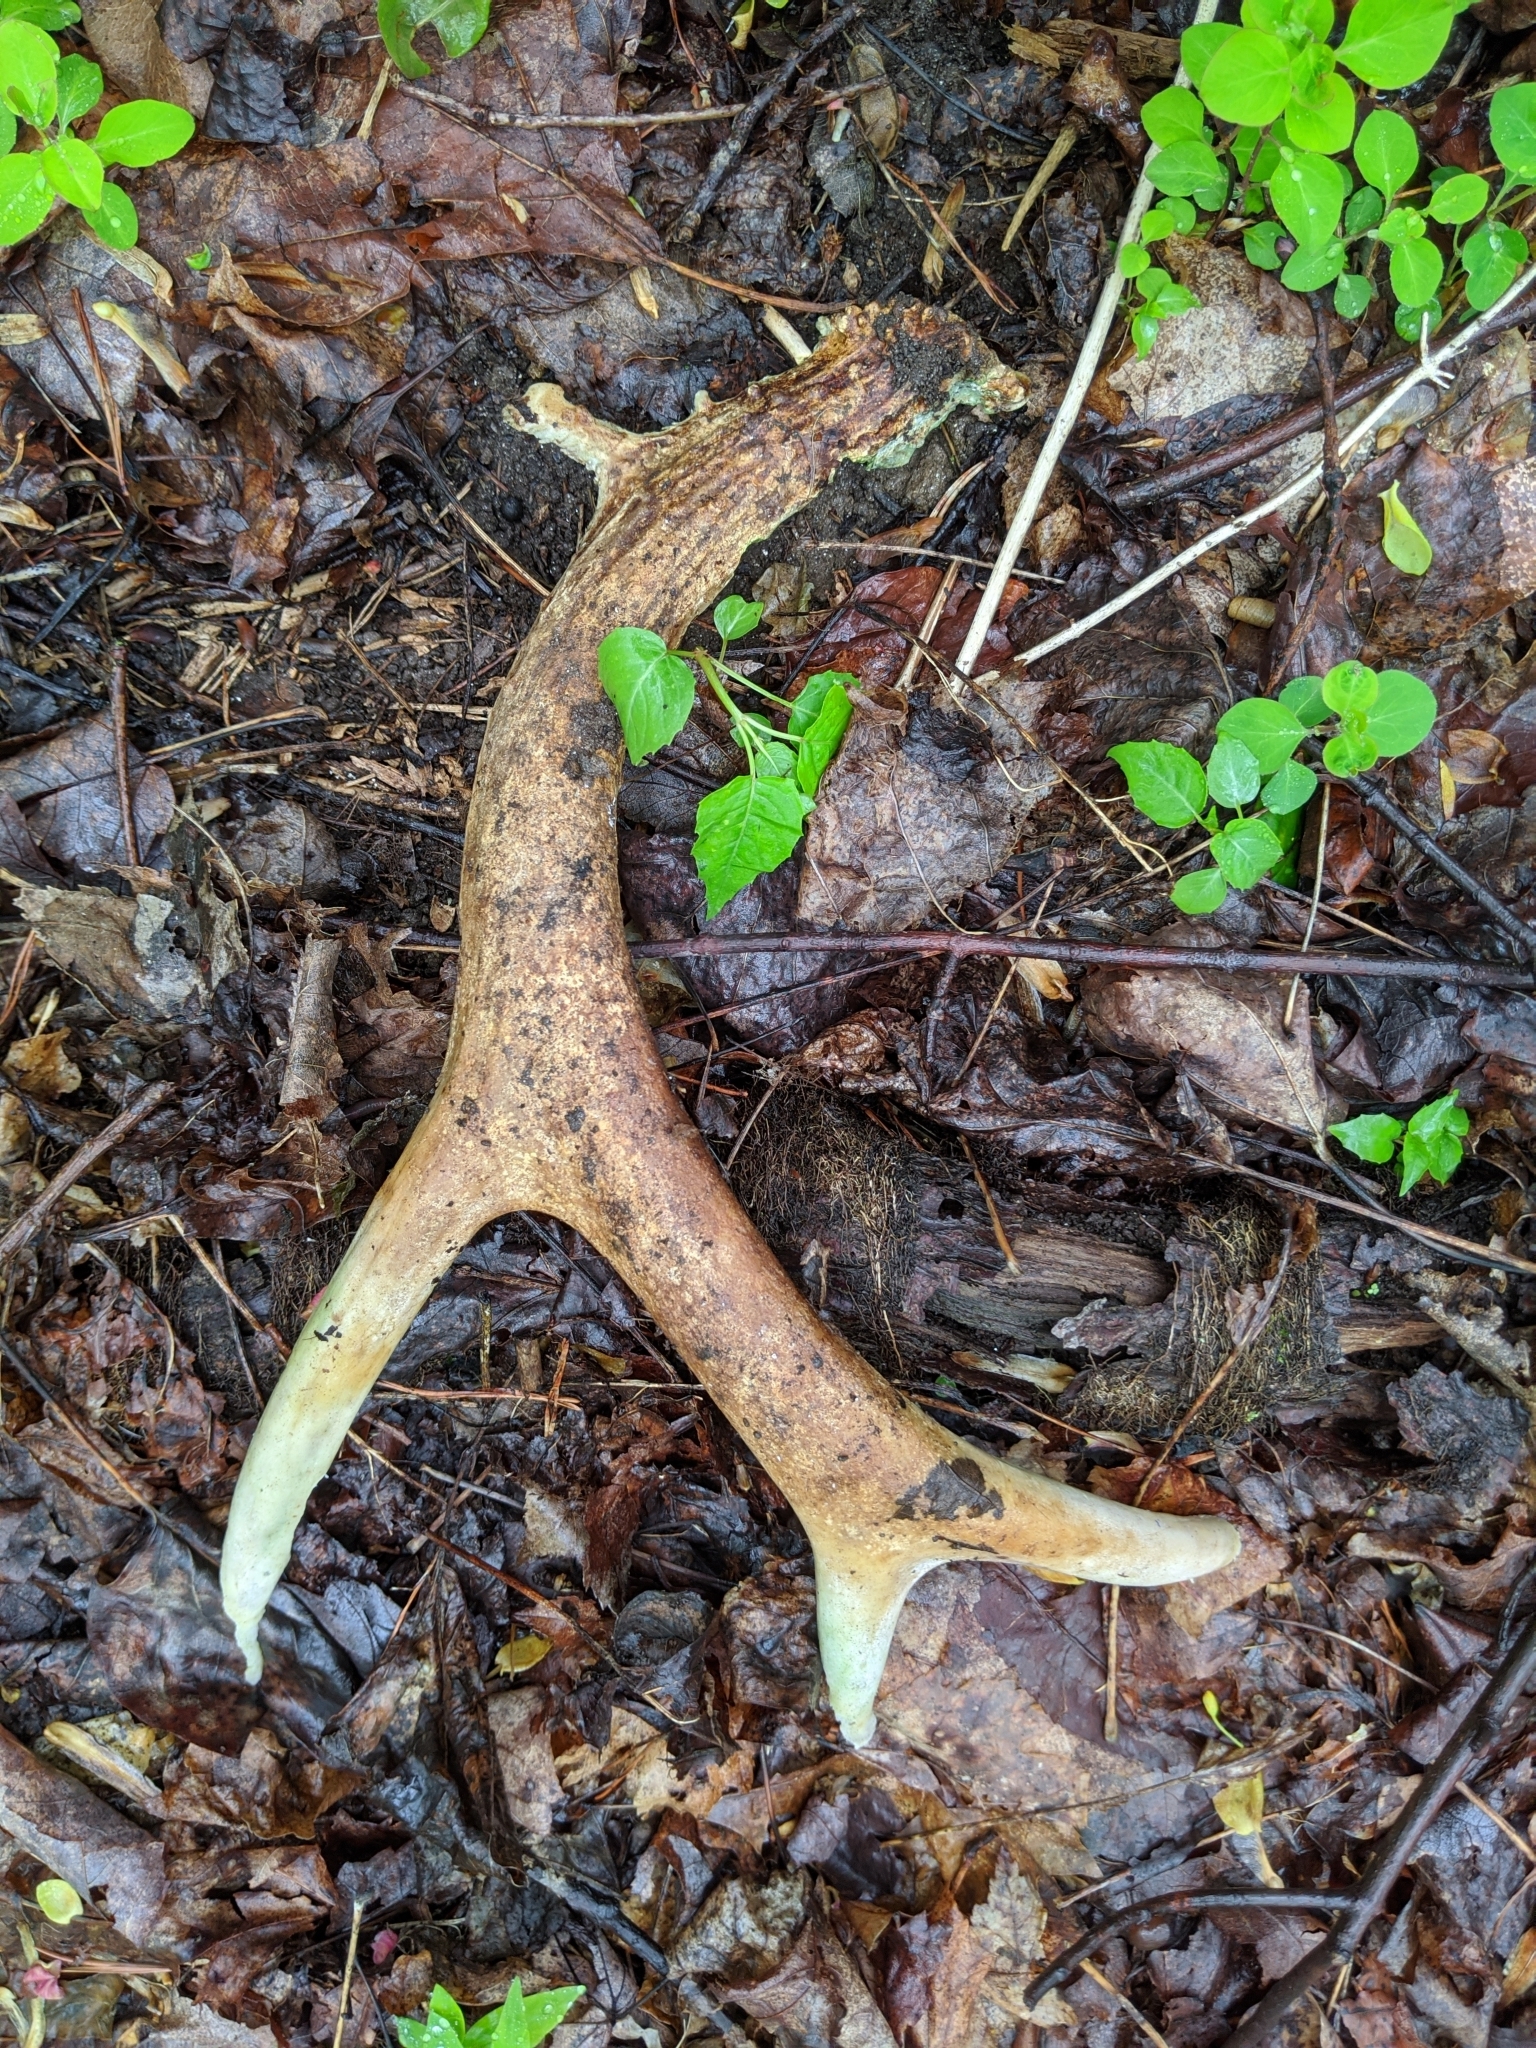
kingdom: Animalia
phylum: Chordata
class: Mammalia
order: Artiodactyla
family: Cervidae
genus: Odocoileus
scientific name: Odocoileus virginianus
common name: White-tailed deer
